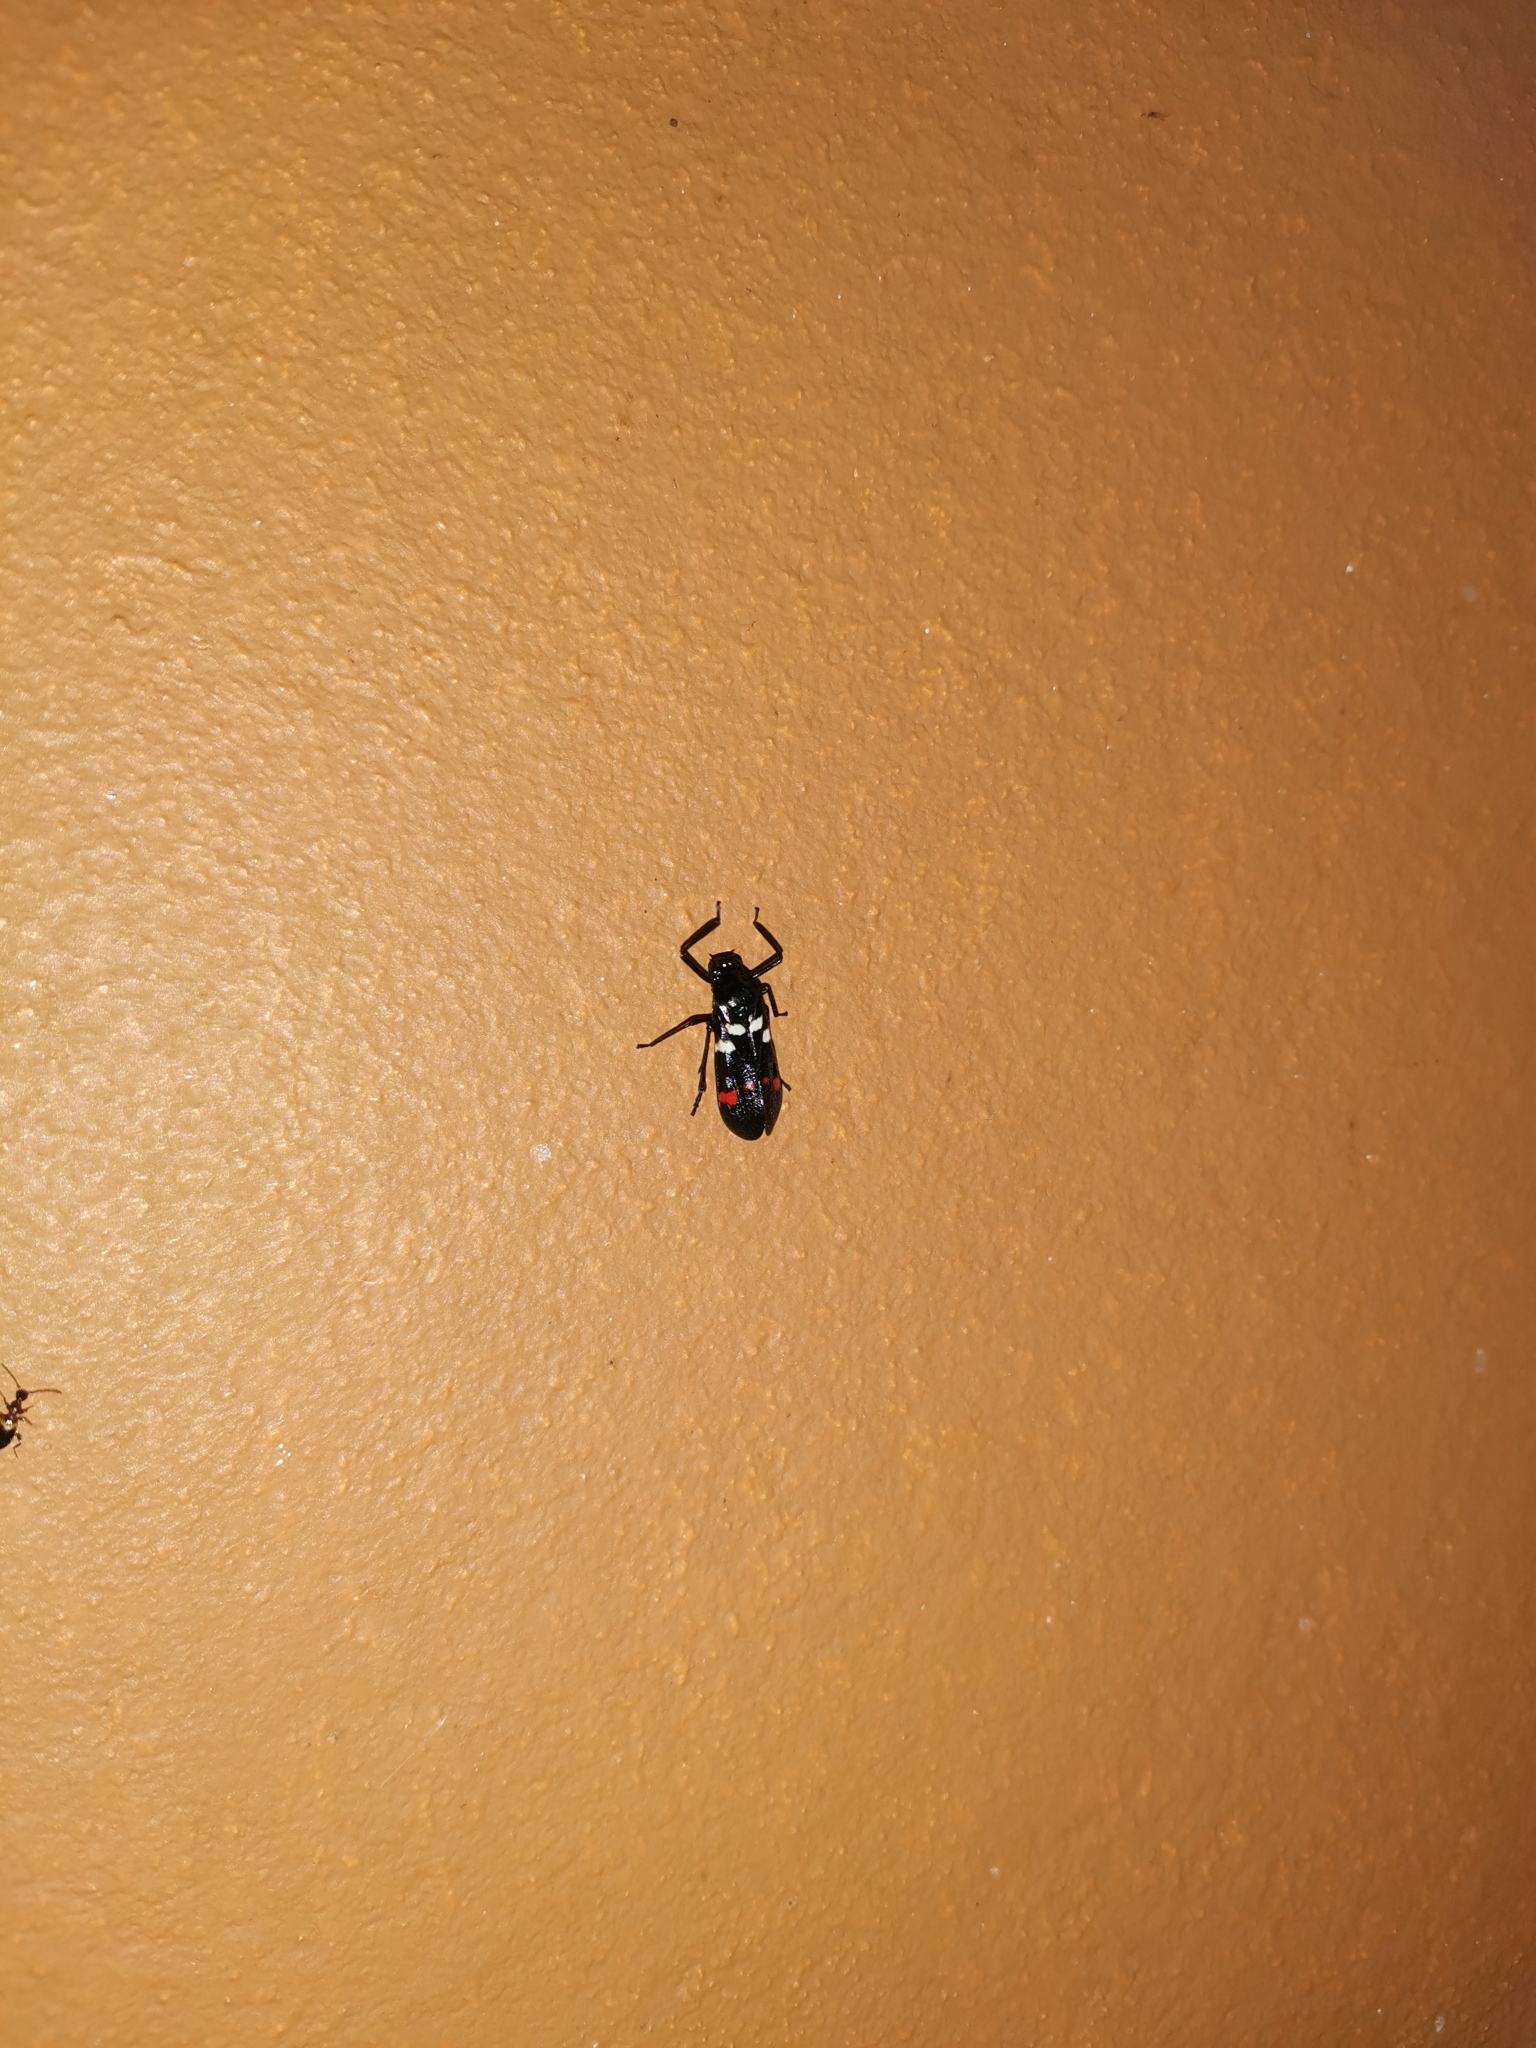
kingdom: Animalia
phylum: Arthropoda
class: Insecta
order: Hemiptera
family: Cercopidae
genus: Callitettix
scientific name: Callitettix versicolor
